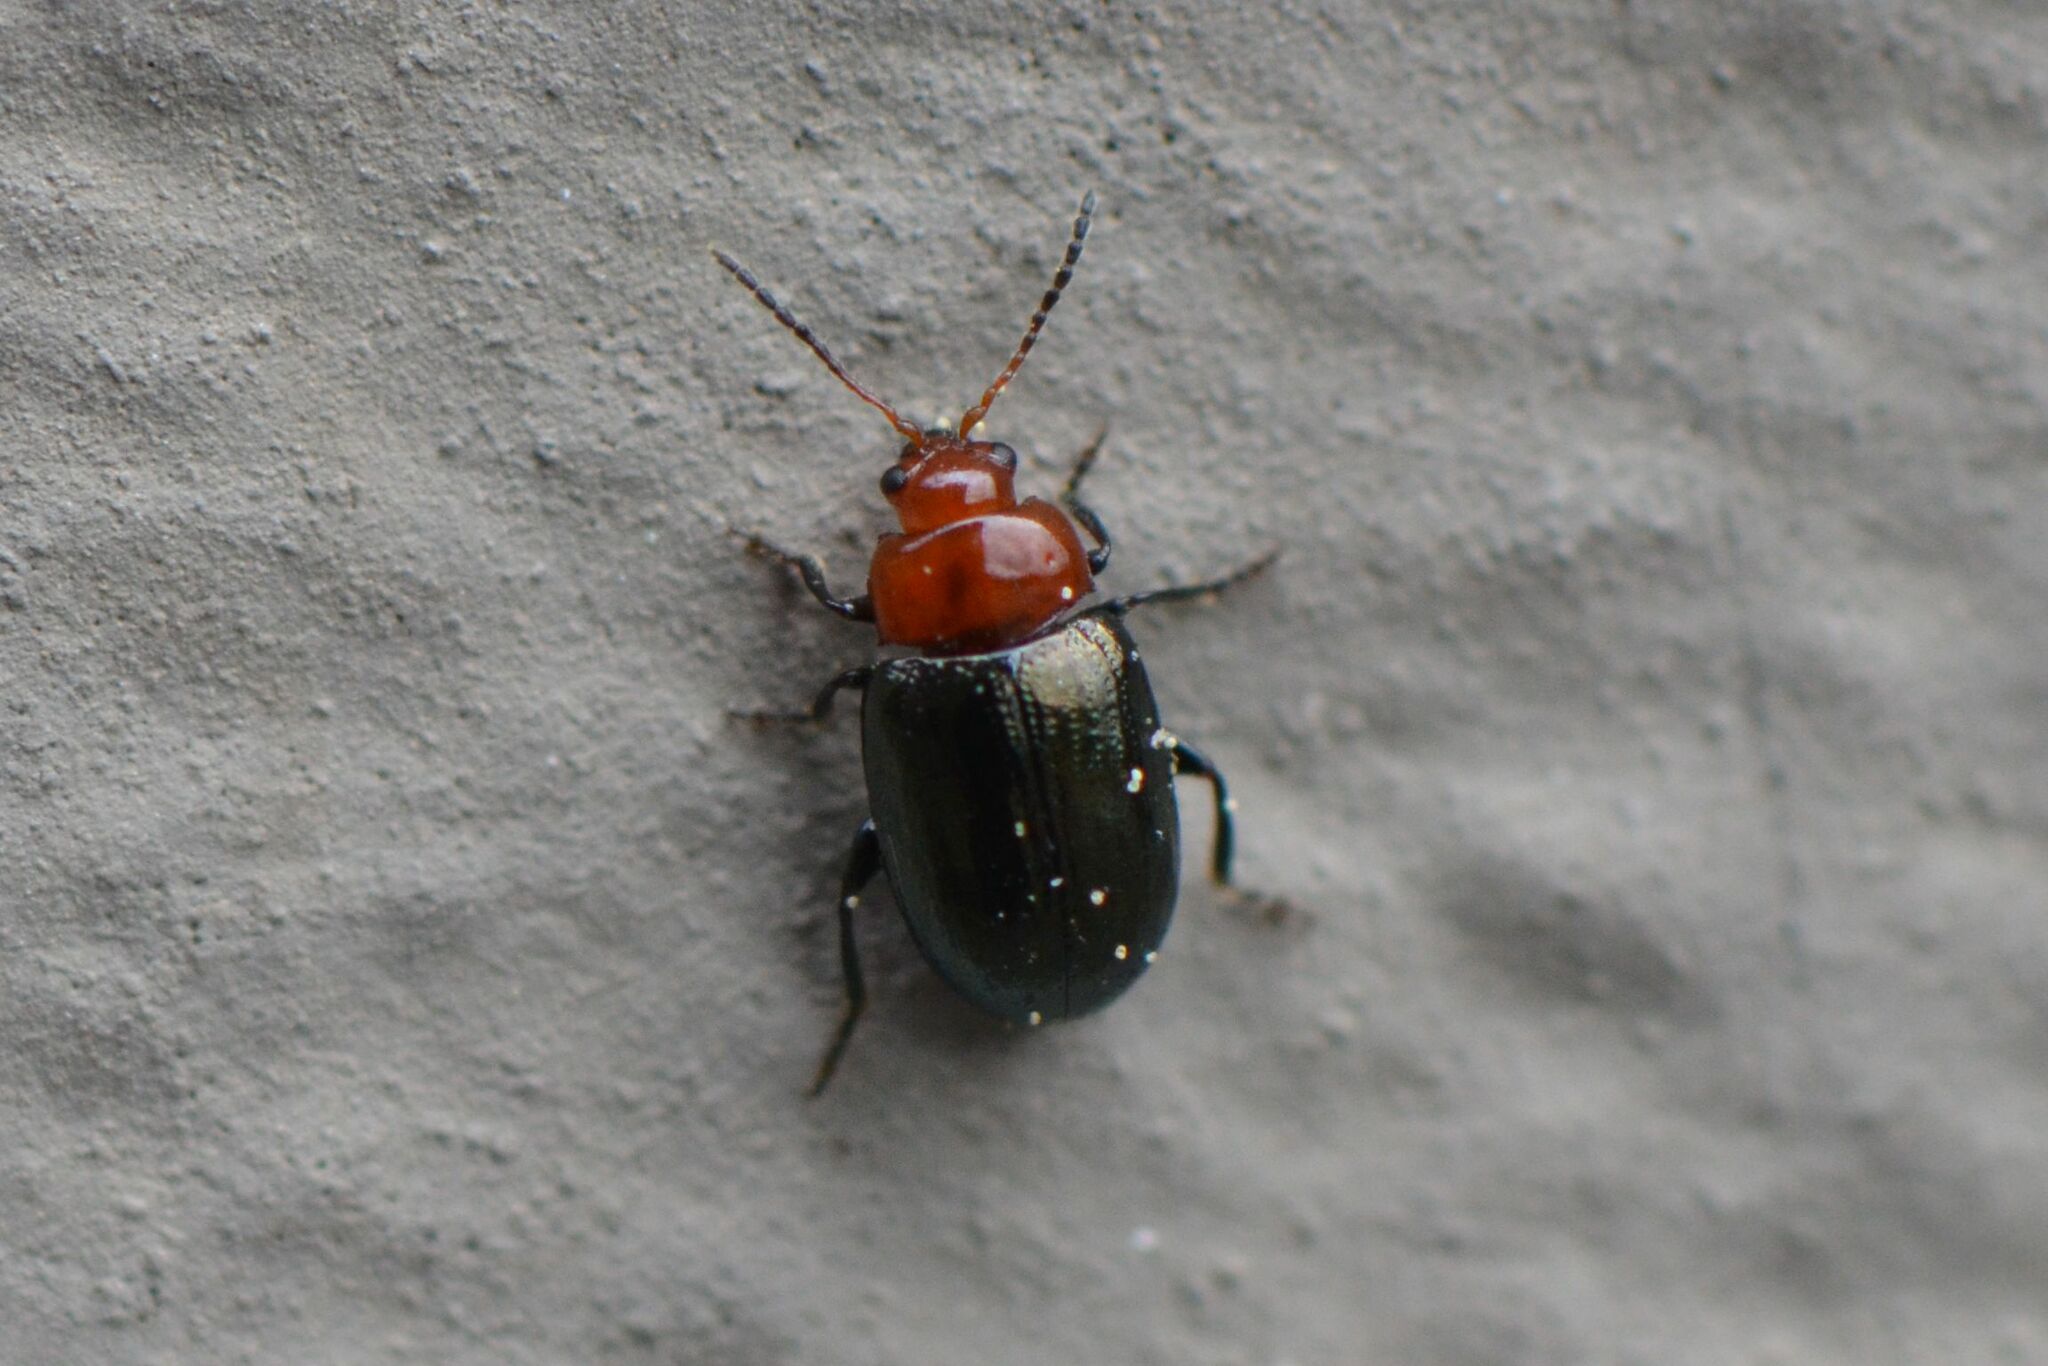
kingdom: Animalia
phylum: Arthropoda
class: Insecta
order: Coleoptera
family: Chrysomelidae
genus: Podagrica
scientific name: Podagrica fuscipes
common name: Mallow flea beetle
